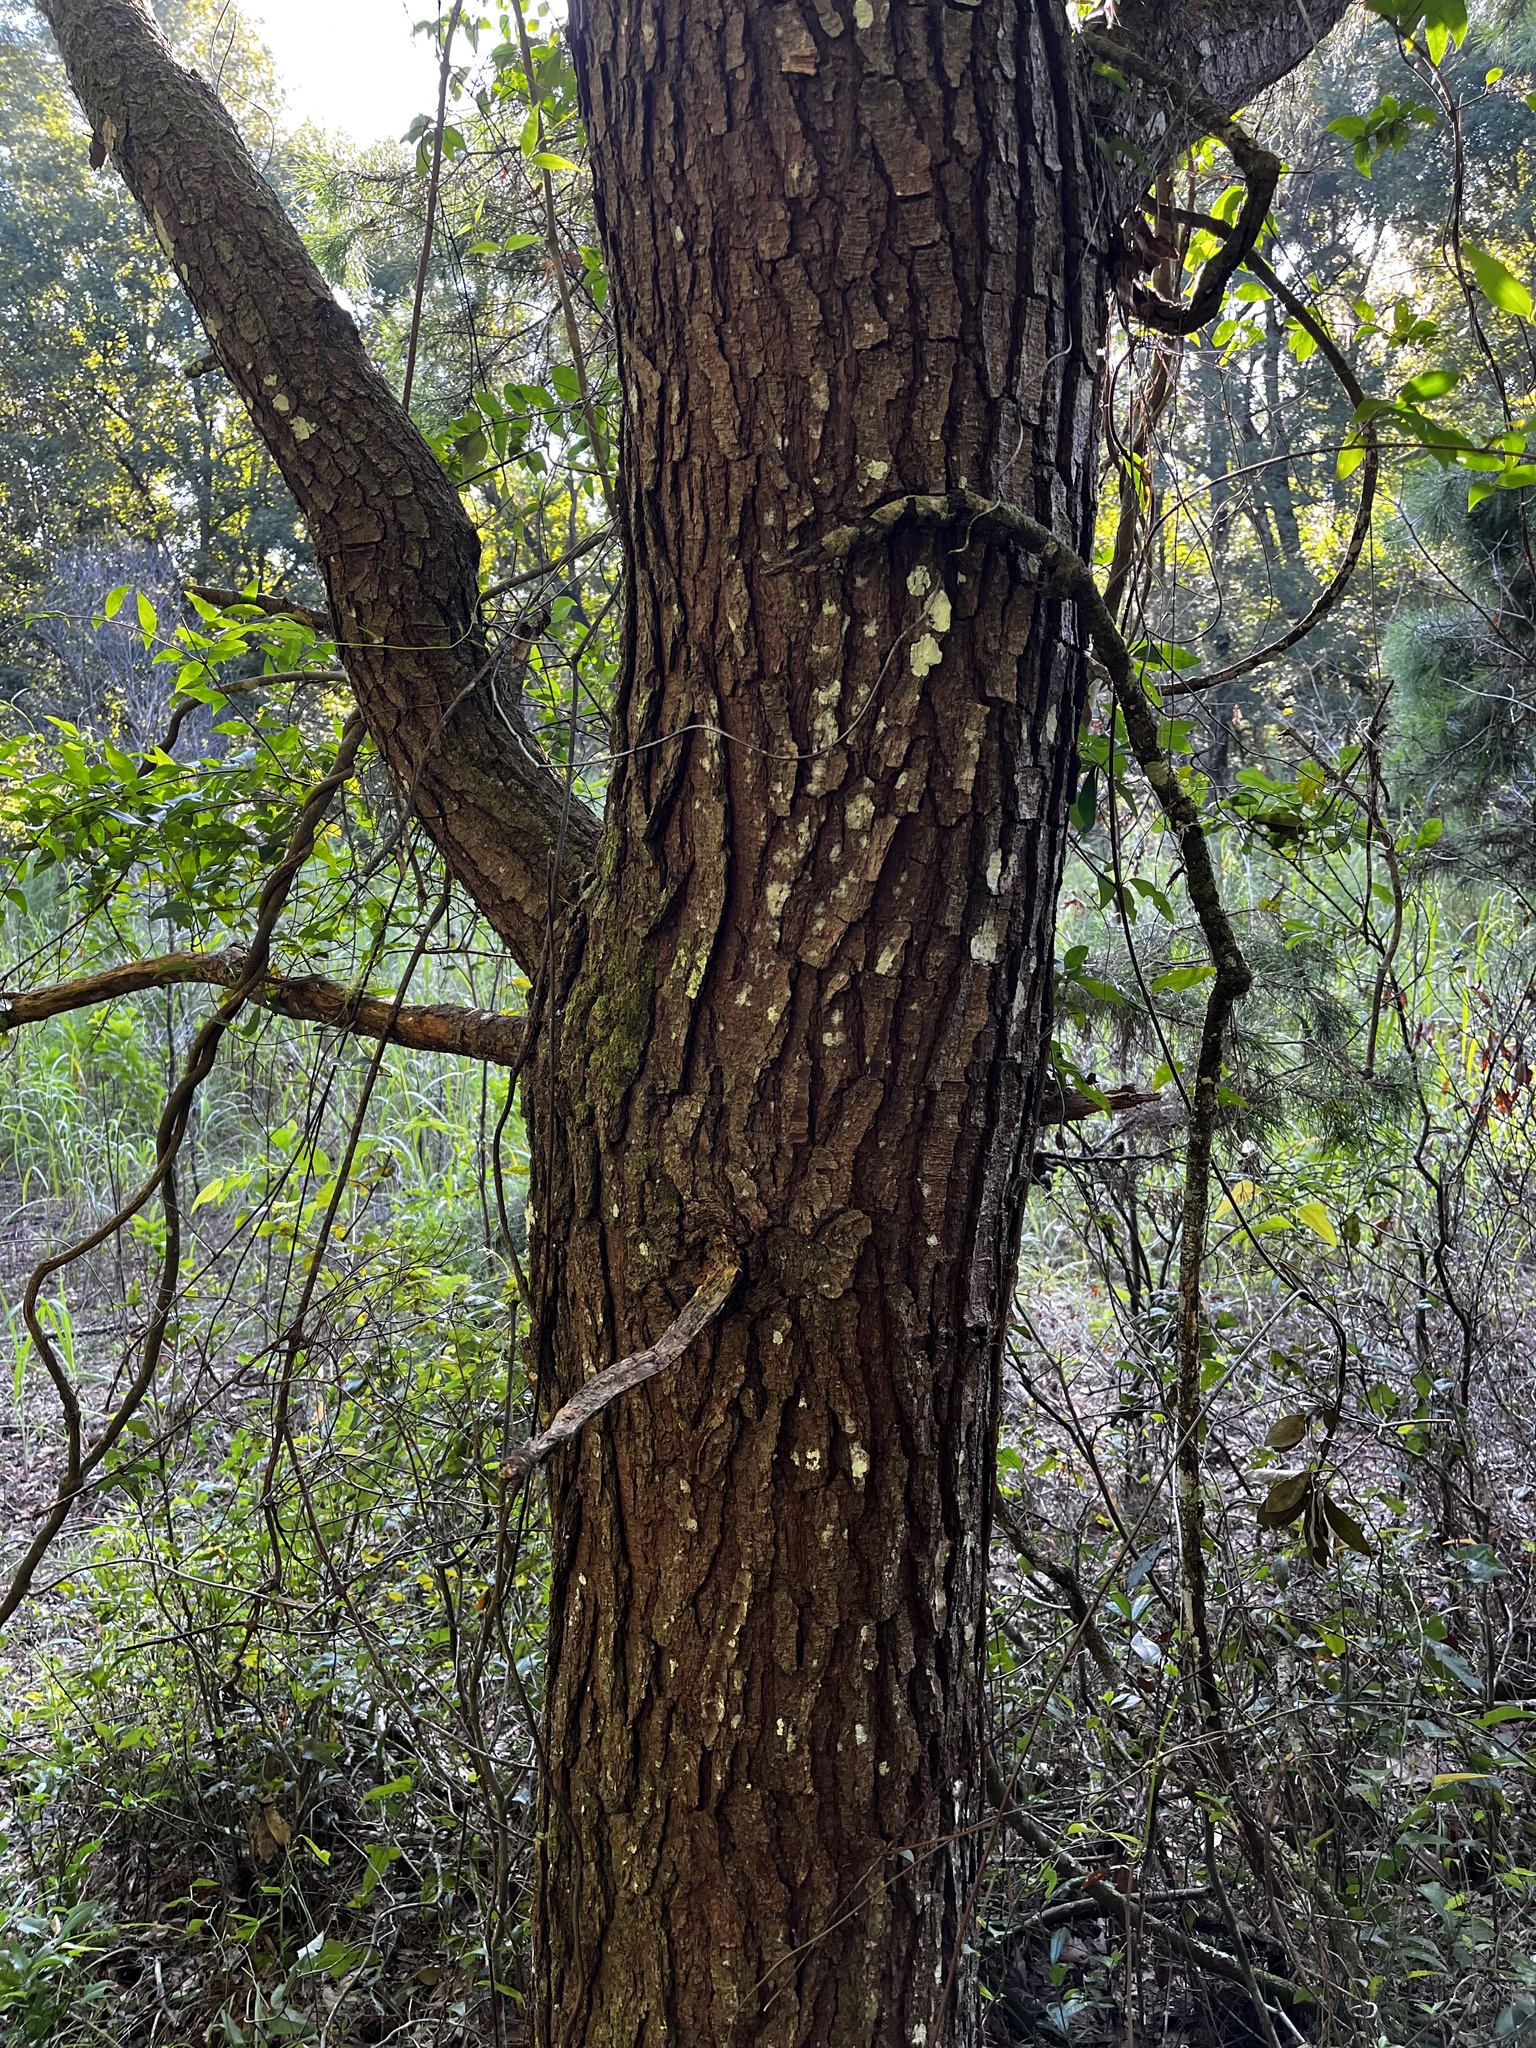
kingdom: Plantae
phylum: Tracheophyta
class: Pinopsida
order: Pinales
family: Pinaceae
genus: Pinus
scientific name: Pinus glabra
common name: Spruce pine
